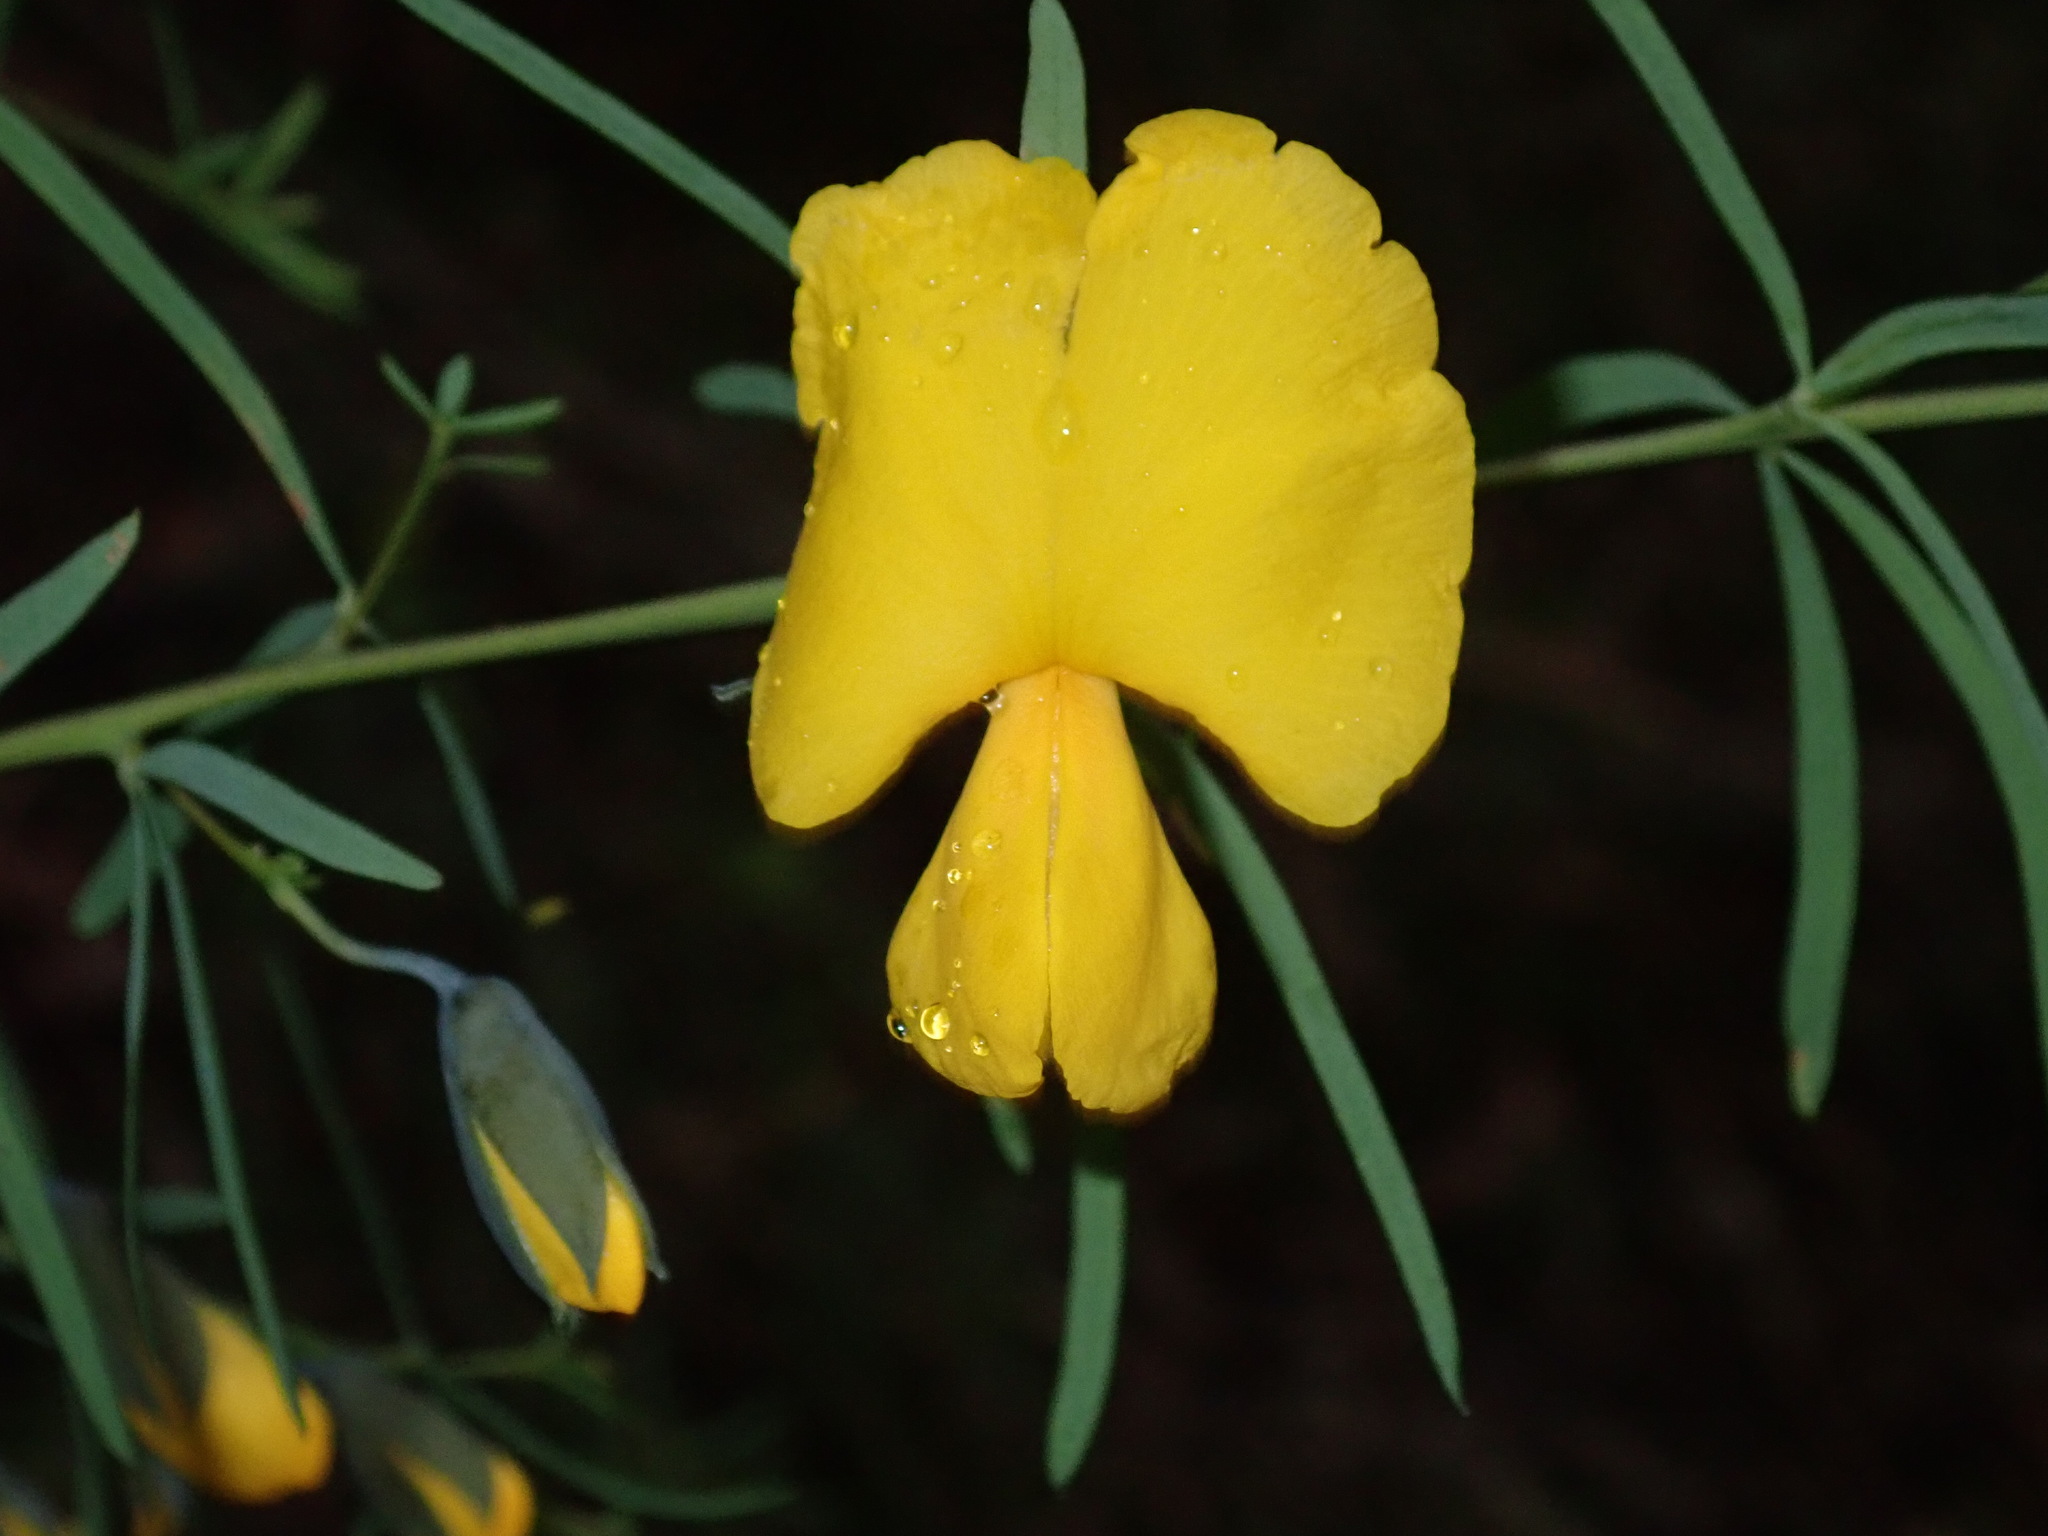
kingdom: Plantae
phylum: Tracheophyta
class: Magnoliopsida
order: Fabales
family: Fabaceae
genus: Gompholobium
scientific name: Gompholobium latifolium
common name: Broadleaf wedge-pea
